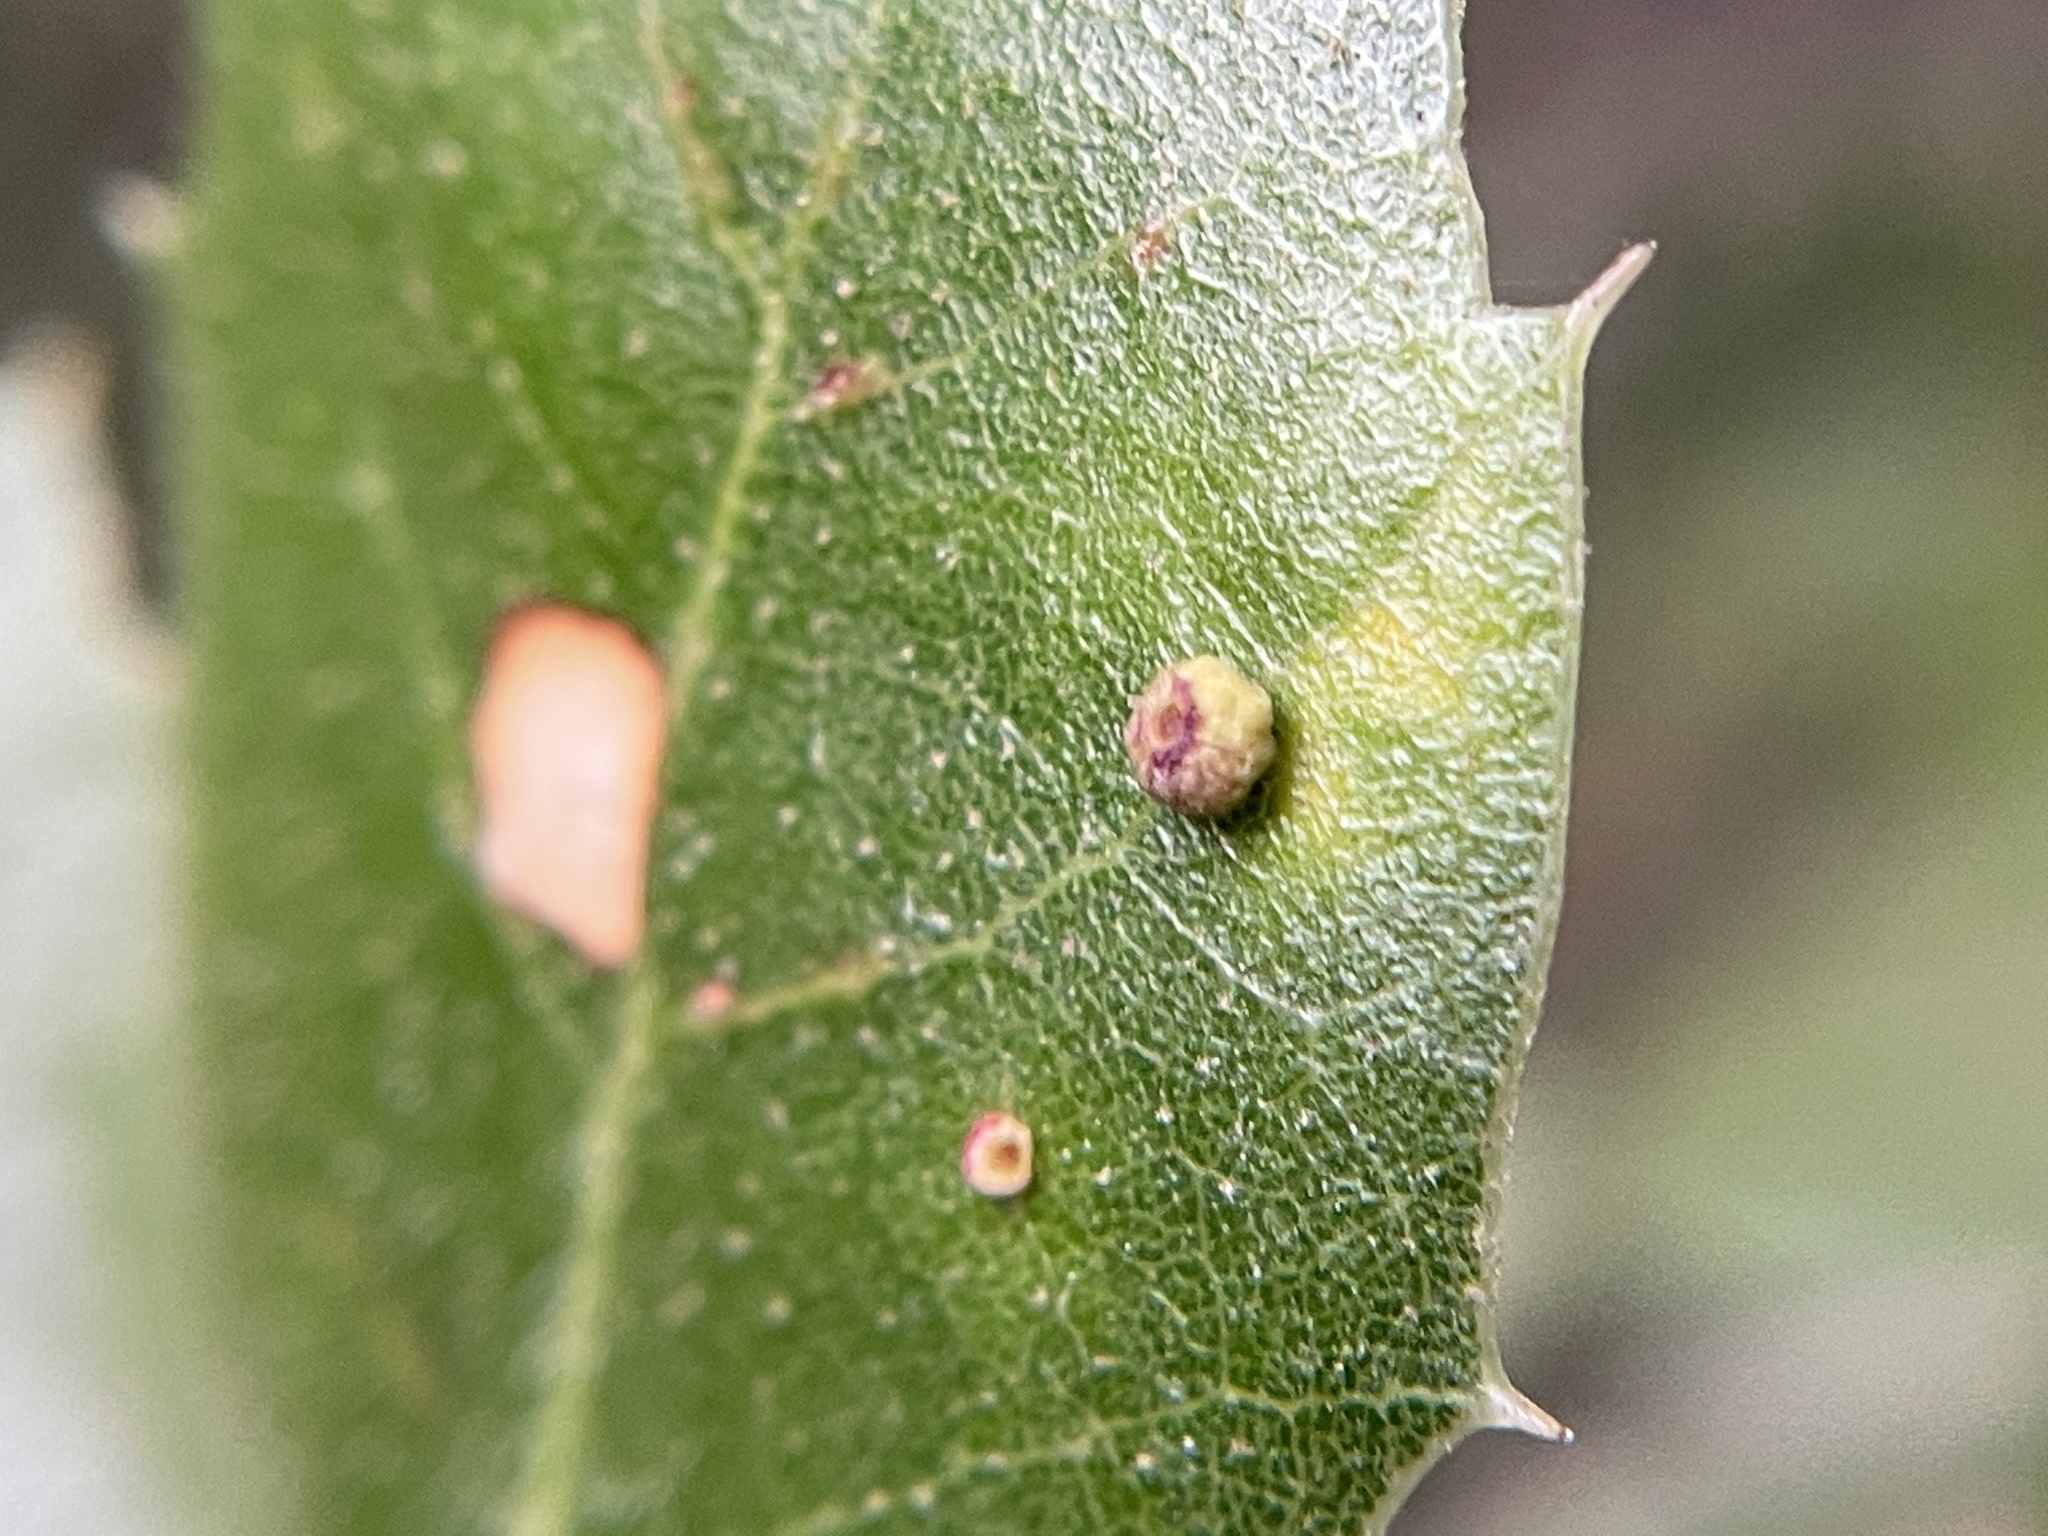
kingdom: Animalia
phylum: Arthropoda
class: Insecta
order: Hymenoptera
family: Cynipidae
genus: Dryocosmus
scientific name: Dryocosmus
